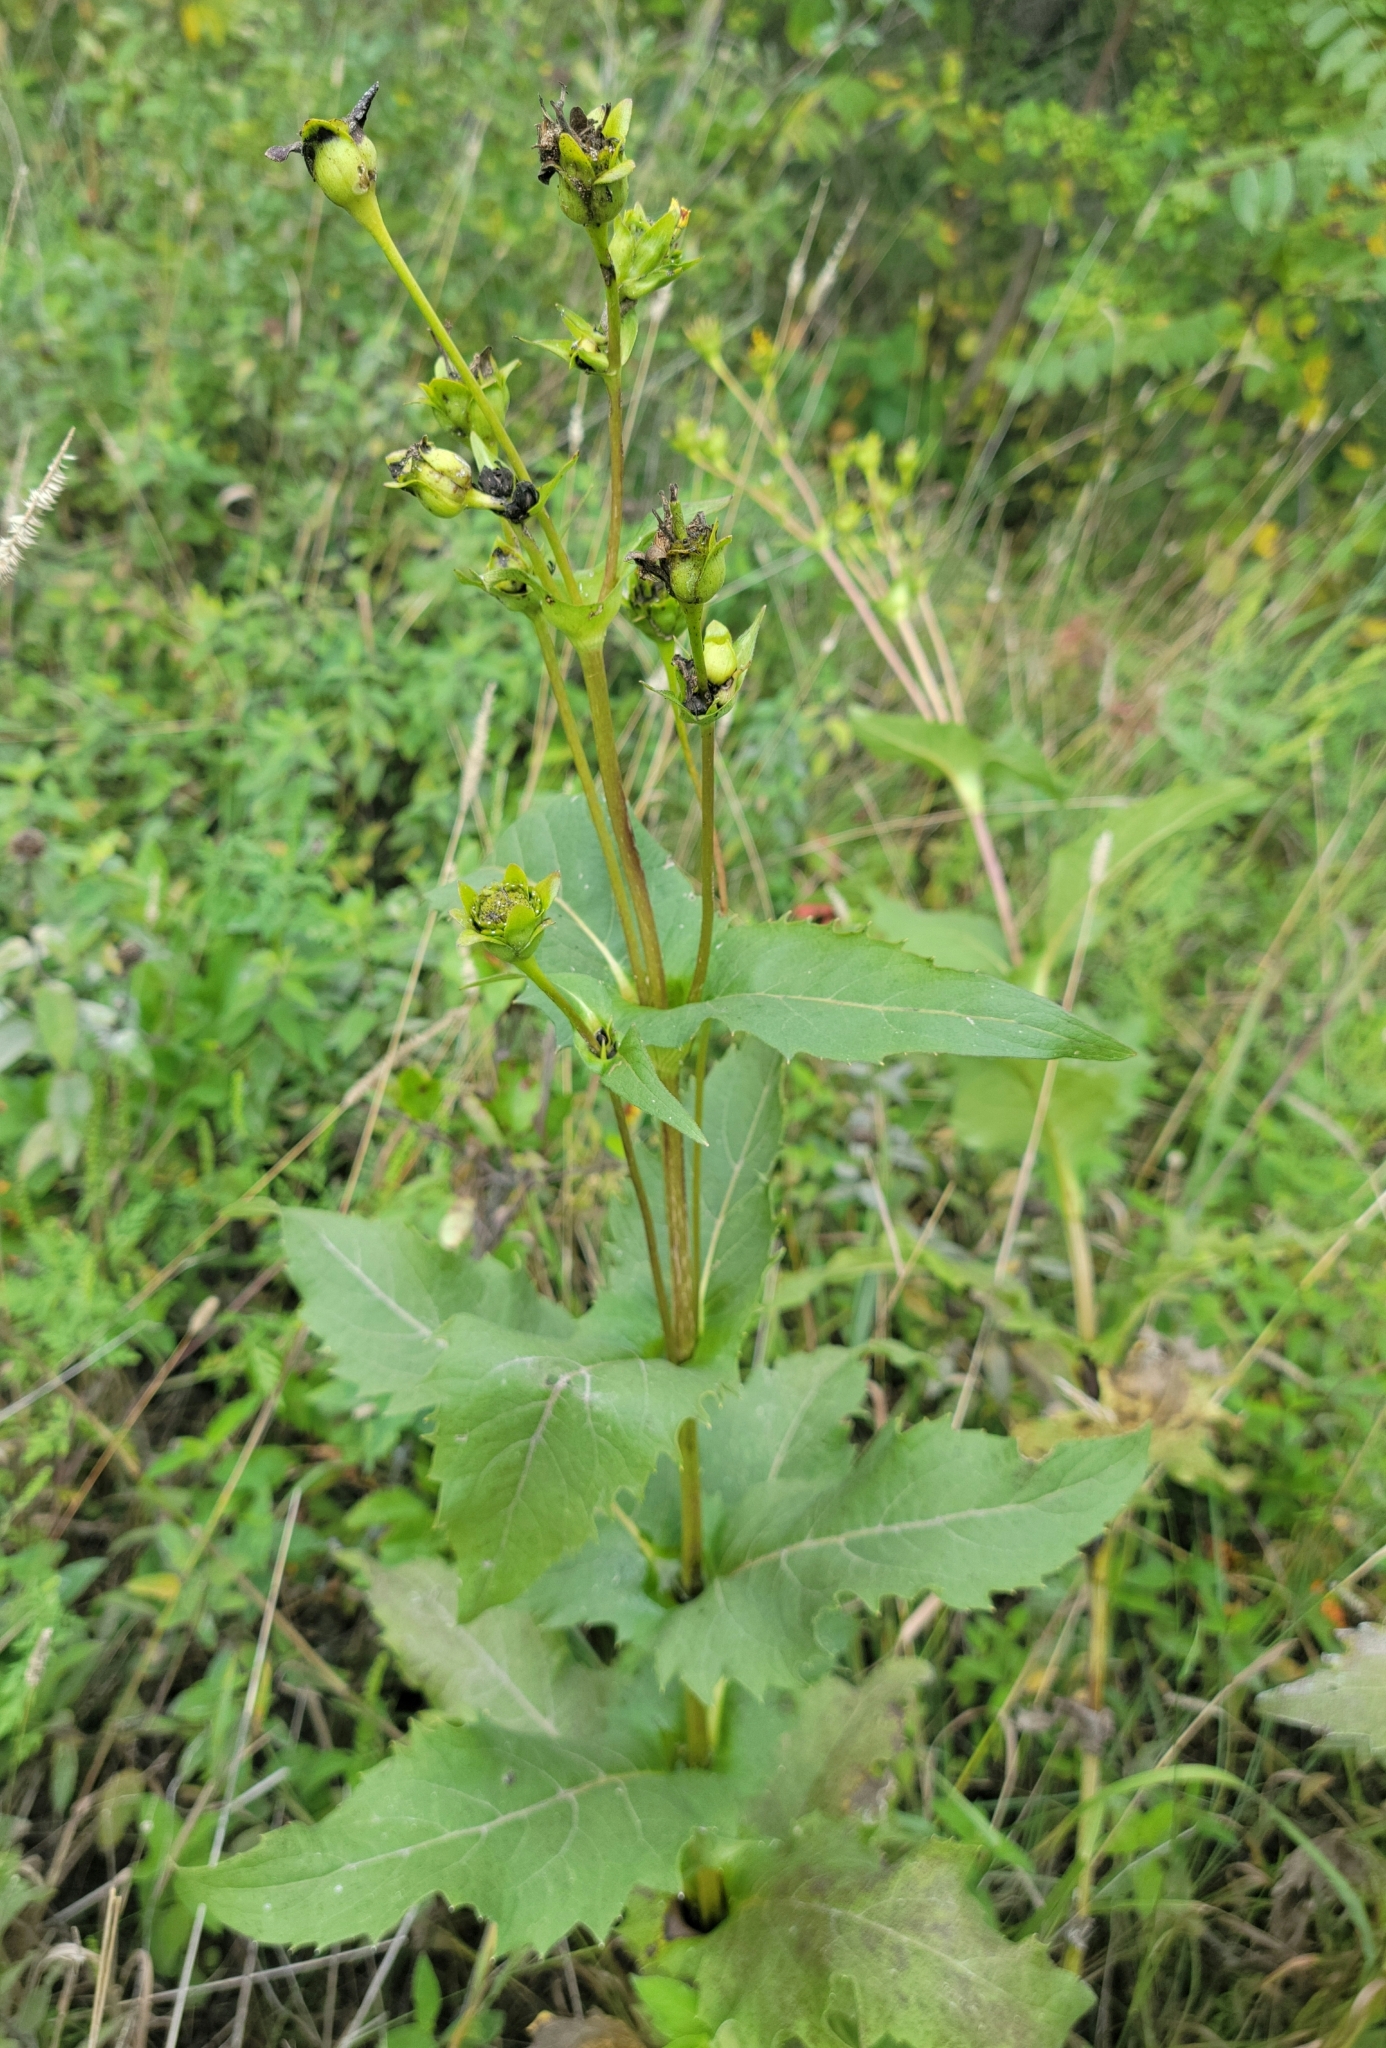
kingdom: Plantae
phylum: Tracheophyta
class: Magnoliopsida
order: Asterales
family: Asteraceae
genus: Silphium
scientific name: Silphium perfoliatum
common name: Cup-plant
